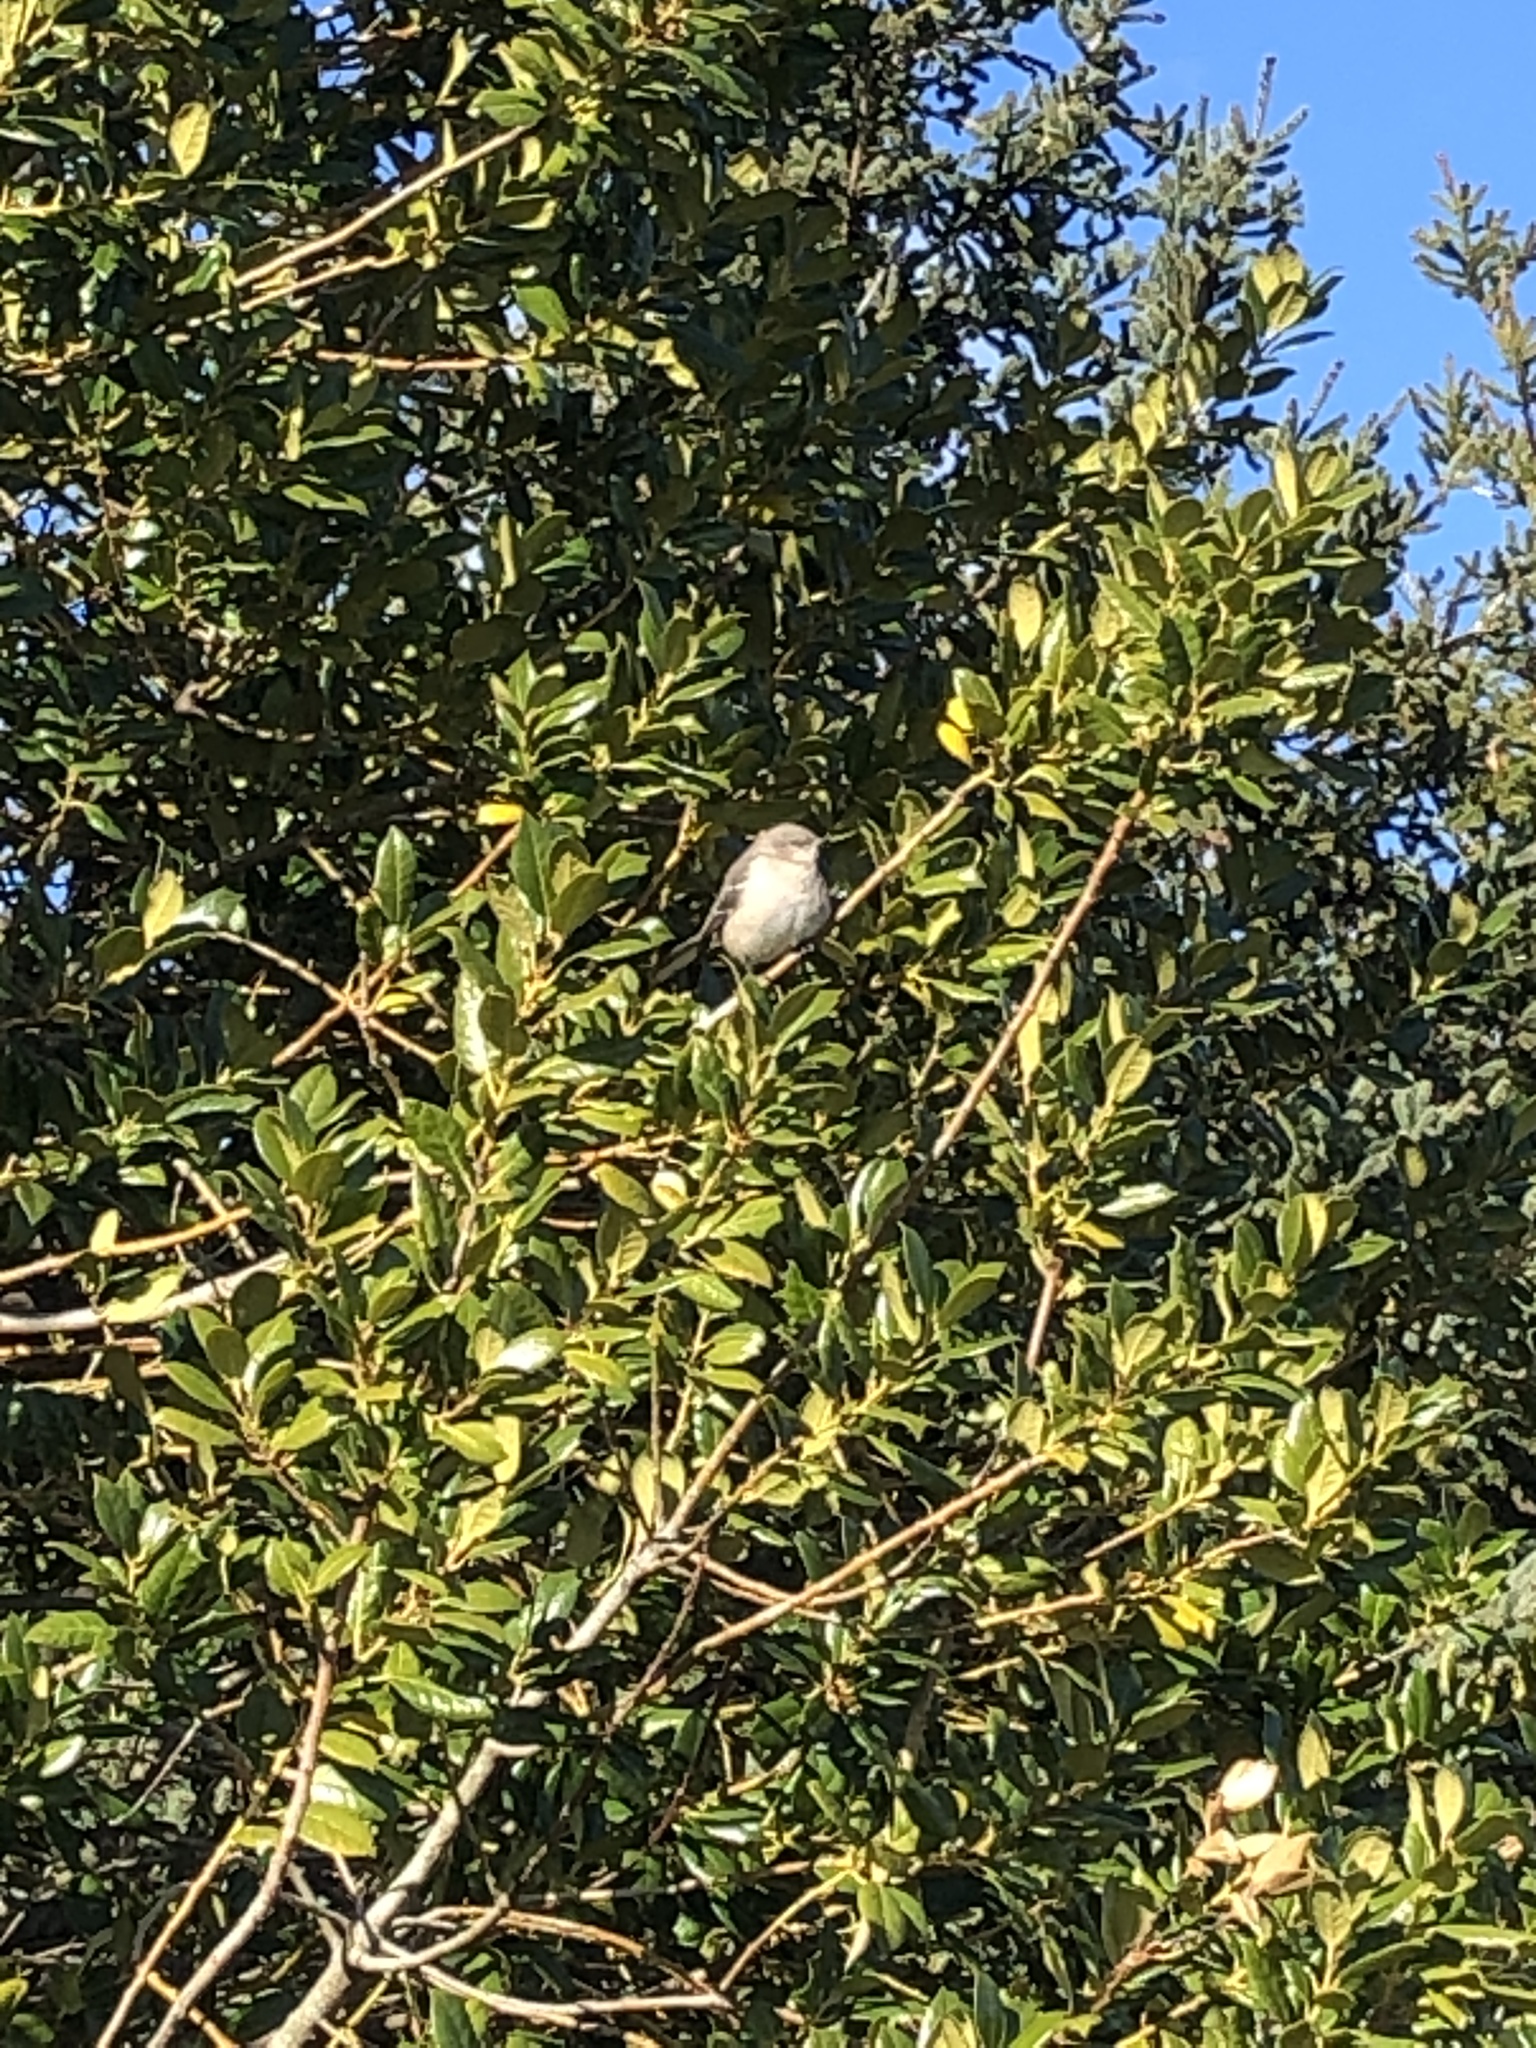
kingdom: Animalia
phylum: Chordata
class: Aves
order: Passeriformes
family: Mimidae
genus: Mimus
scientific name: Mimus polyglottos
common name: Northern mockingbird
